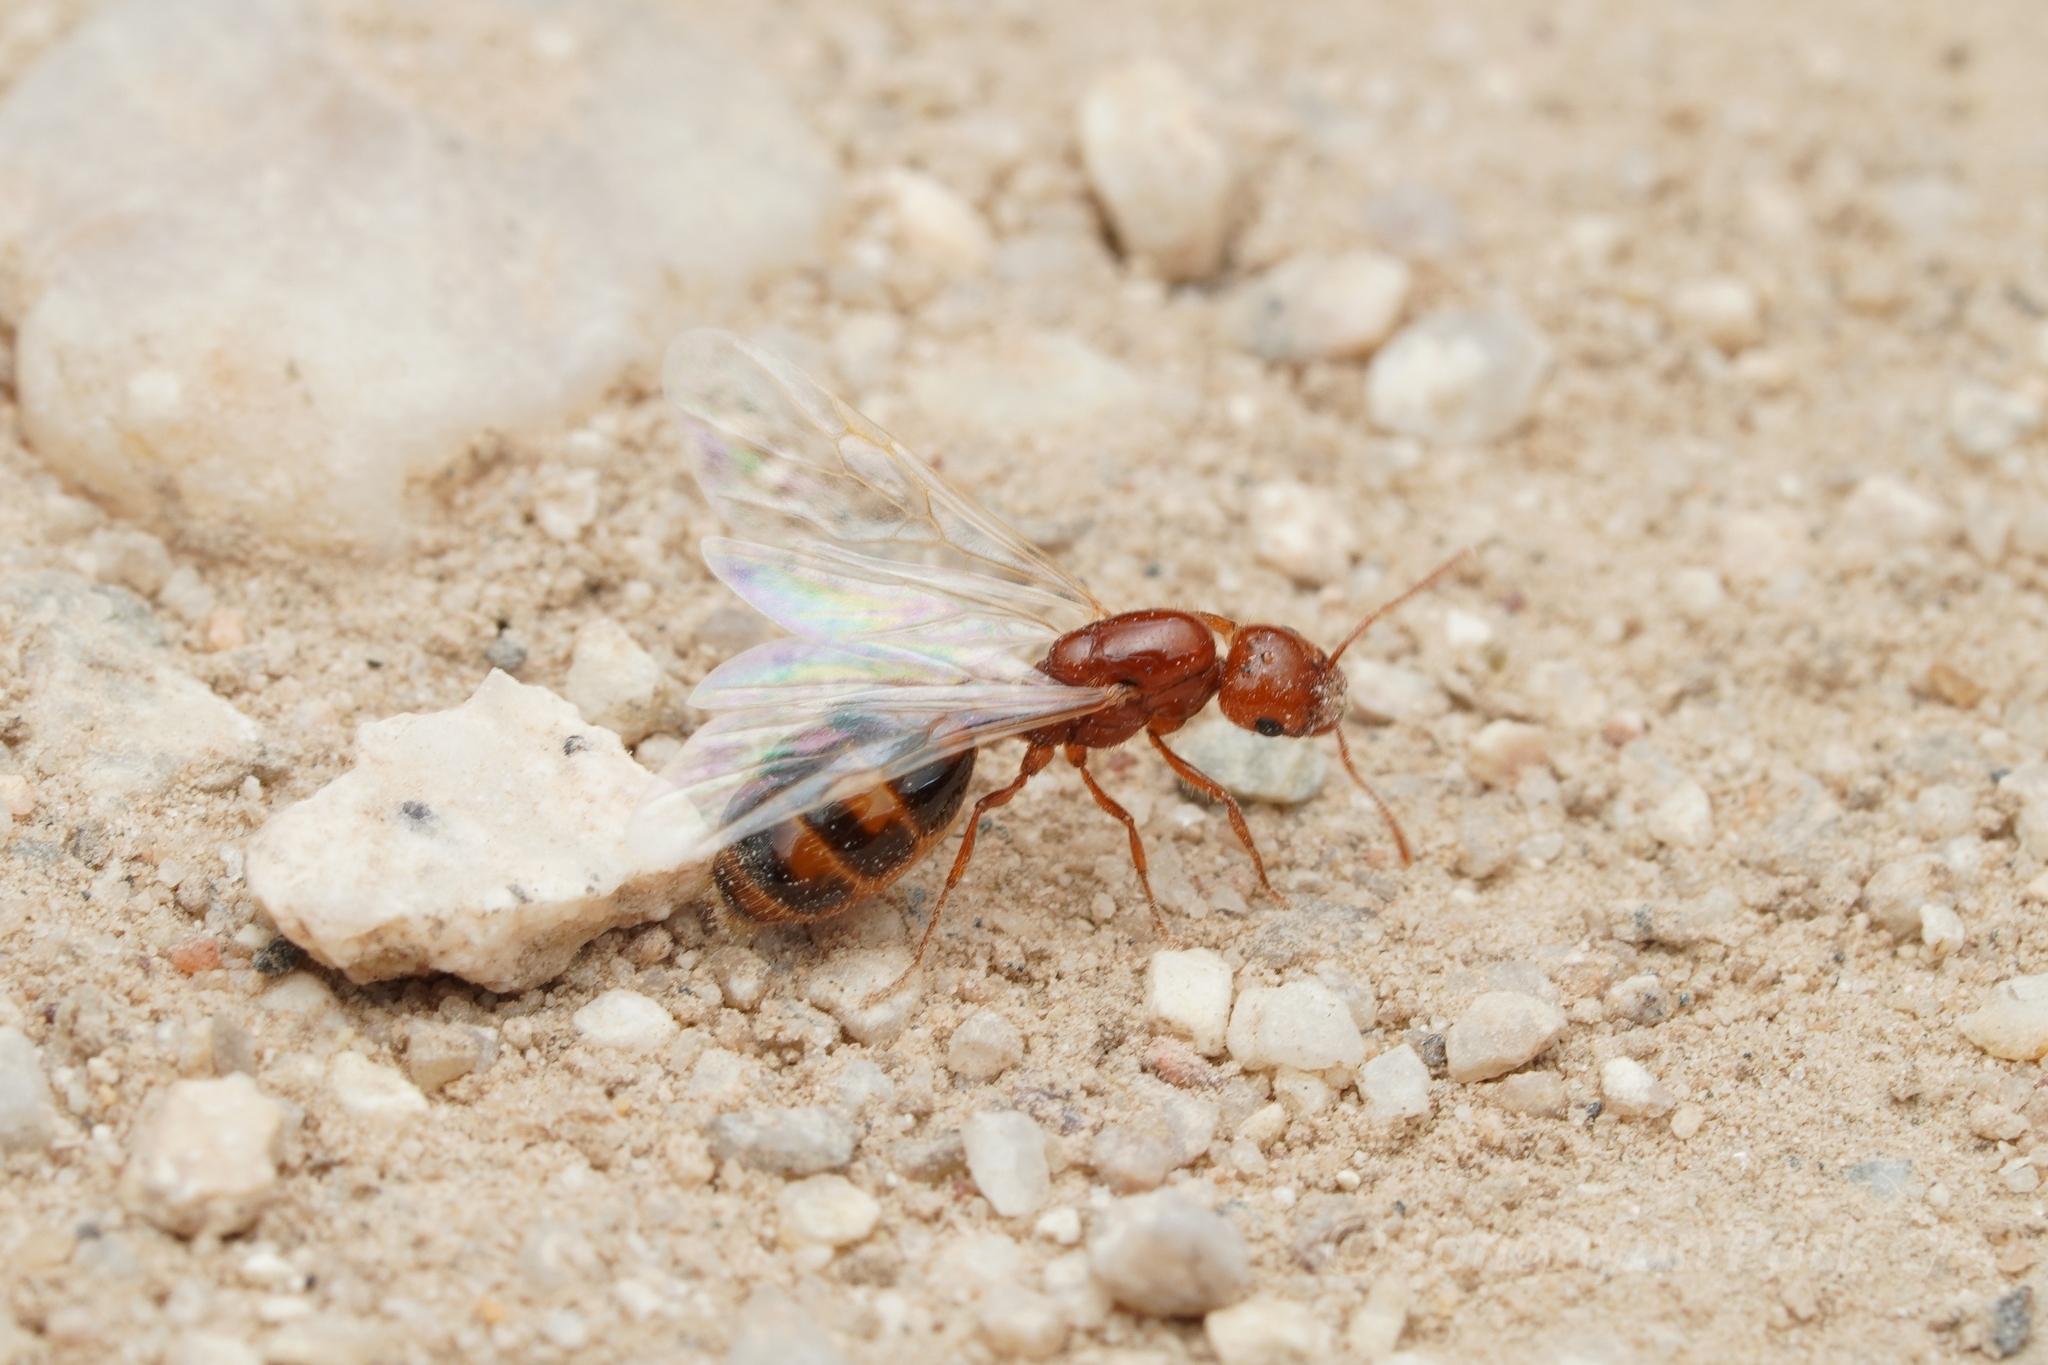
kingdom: Animalia
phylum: Arthropoda
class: Insecta
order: Hymenoptera
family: Formicidae
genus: Solenopsis
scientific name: Solenopsis xyloni
